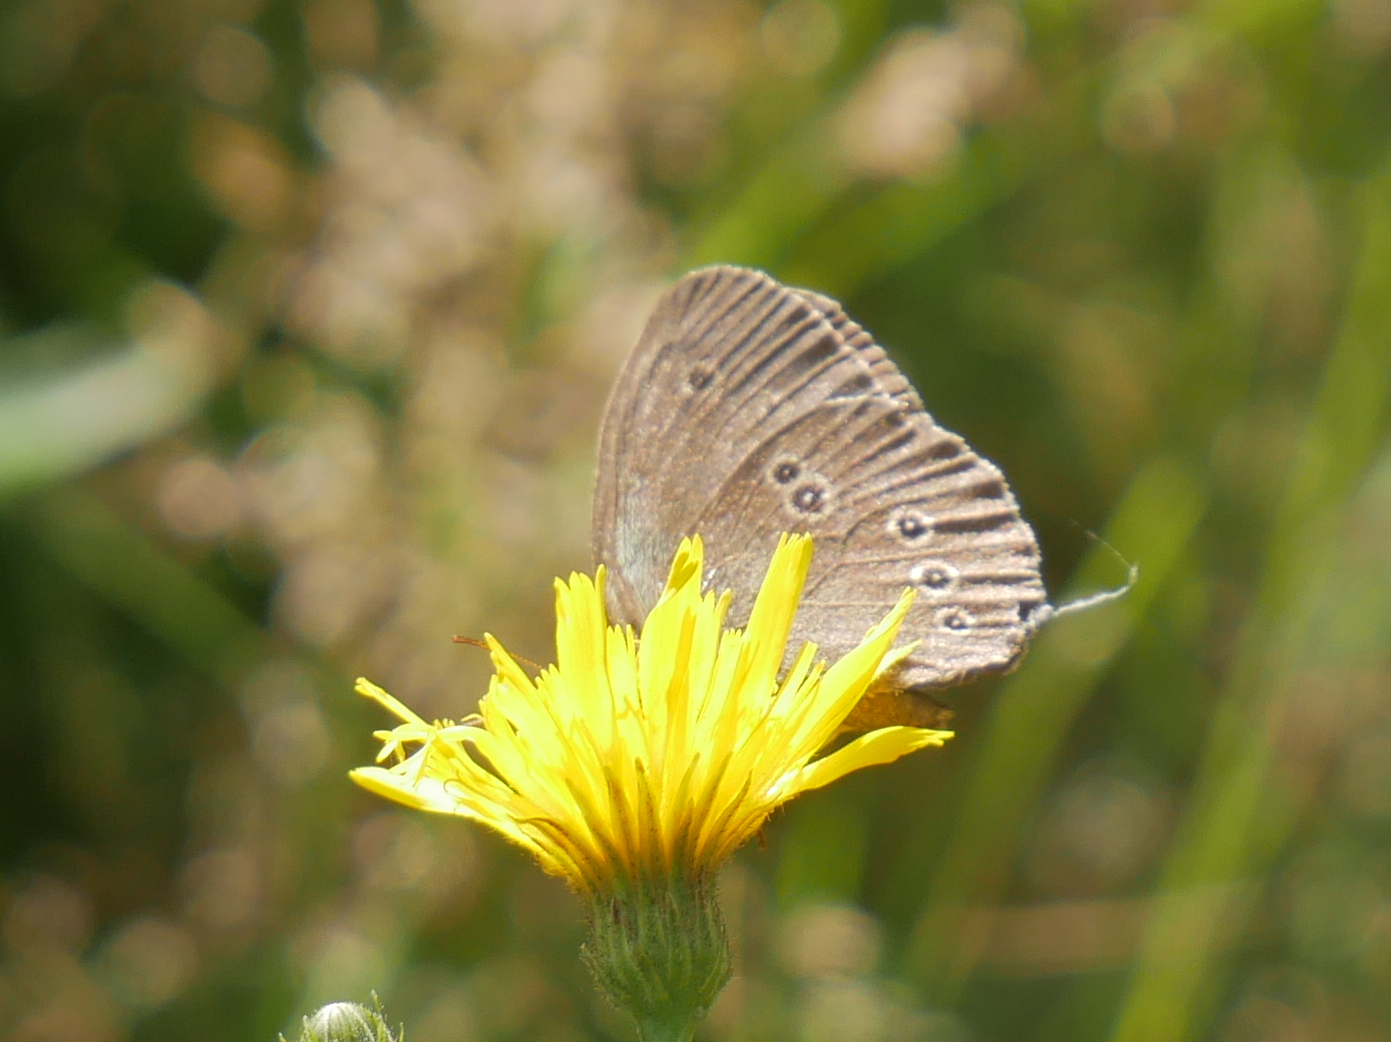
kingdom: Animalia
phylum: Arthropoda
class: Insecta
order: Lepidoptera
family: Nymphalidae
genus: Aphantopus
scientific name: Aphantopus hyperantus
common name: Ringlet
